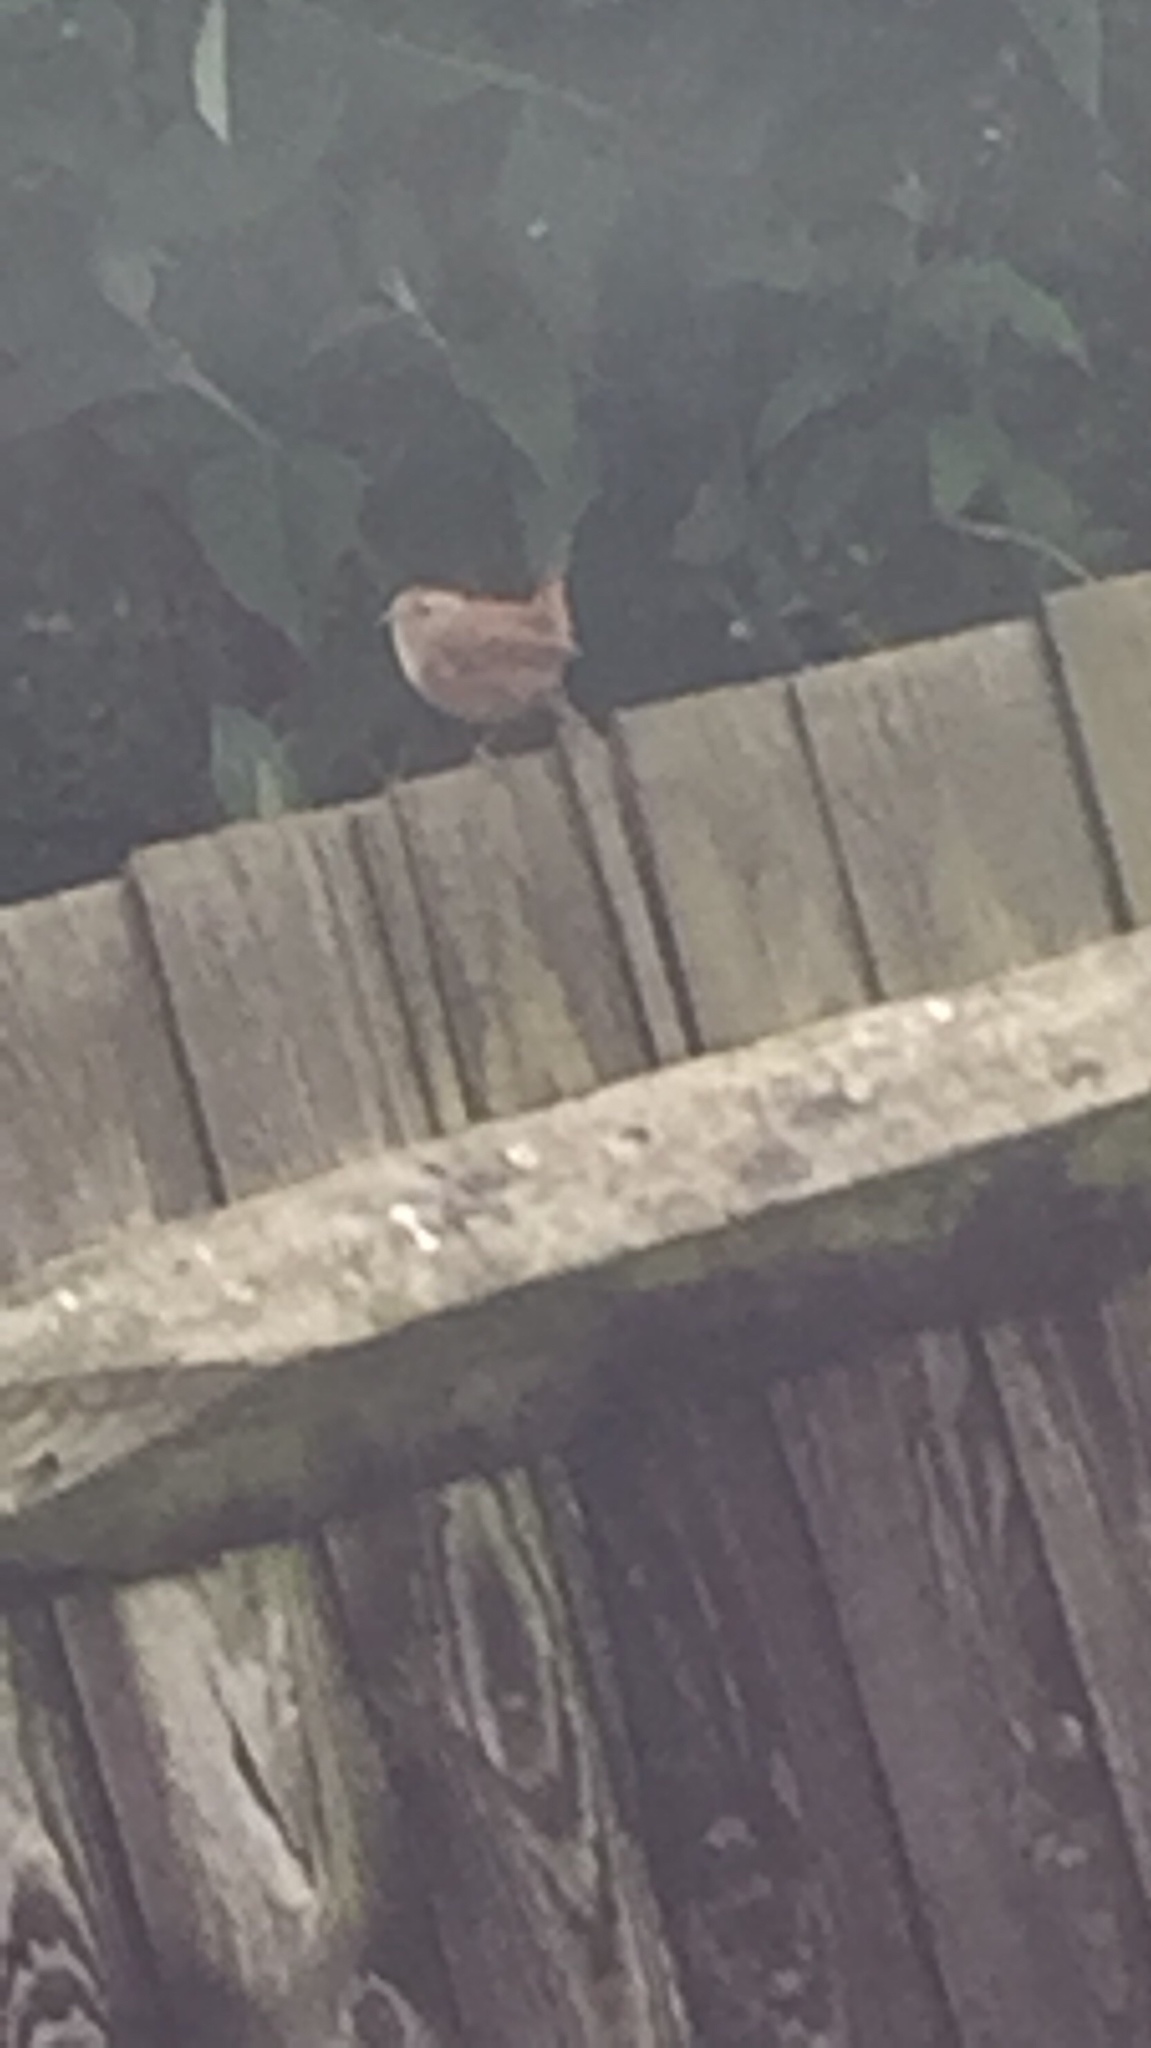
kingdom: Animalia
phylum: Chordata
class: Aves
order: Passeriformes
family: Troglodytidae
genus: Troglodytes
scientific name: Troglodytes troglodytes
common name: Eurasian wren
